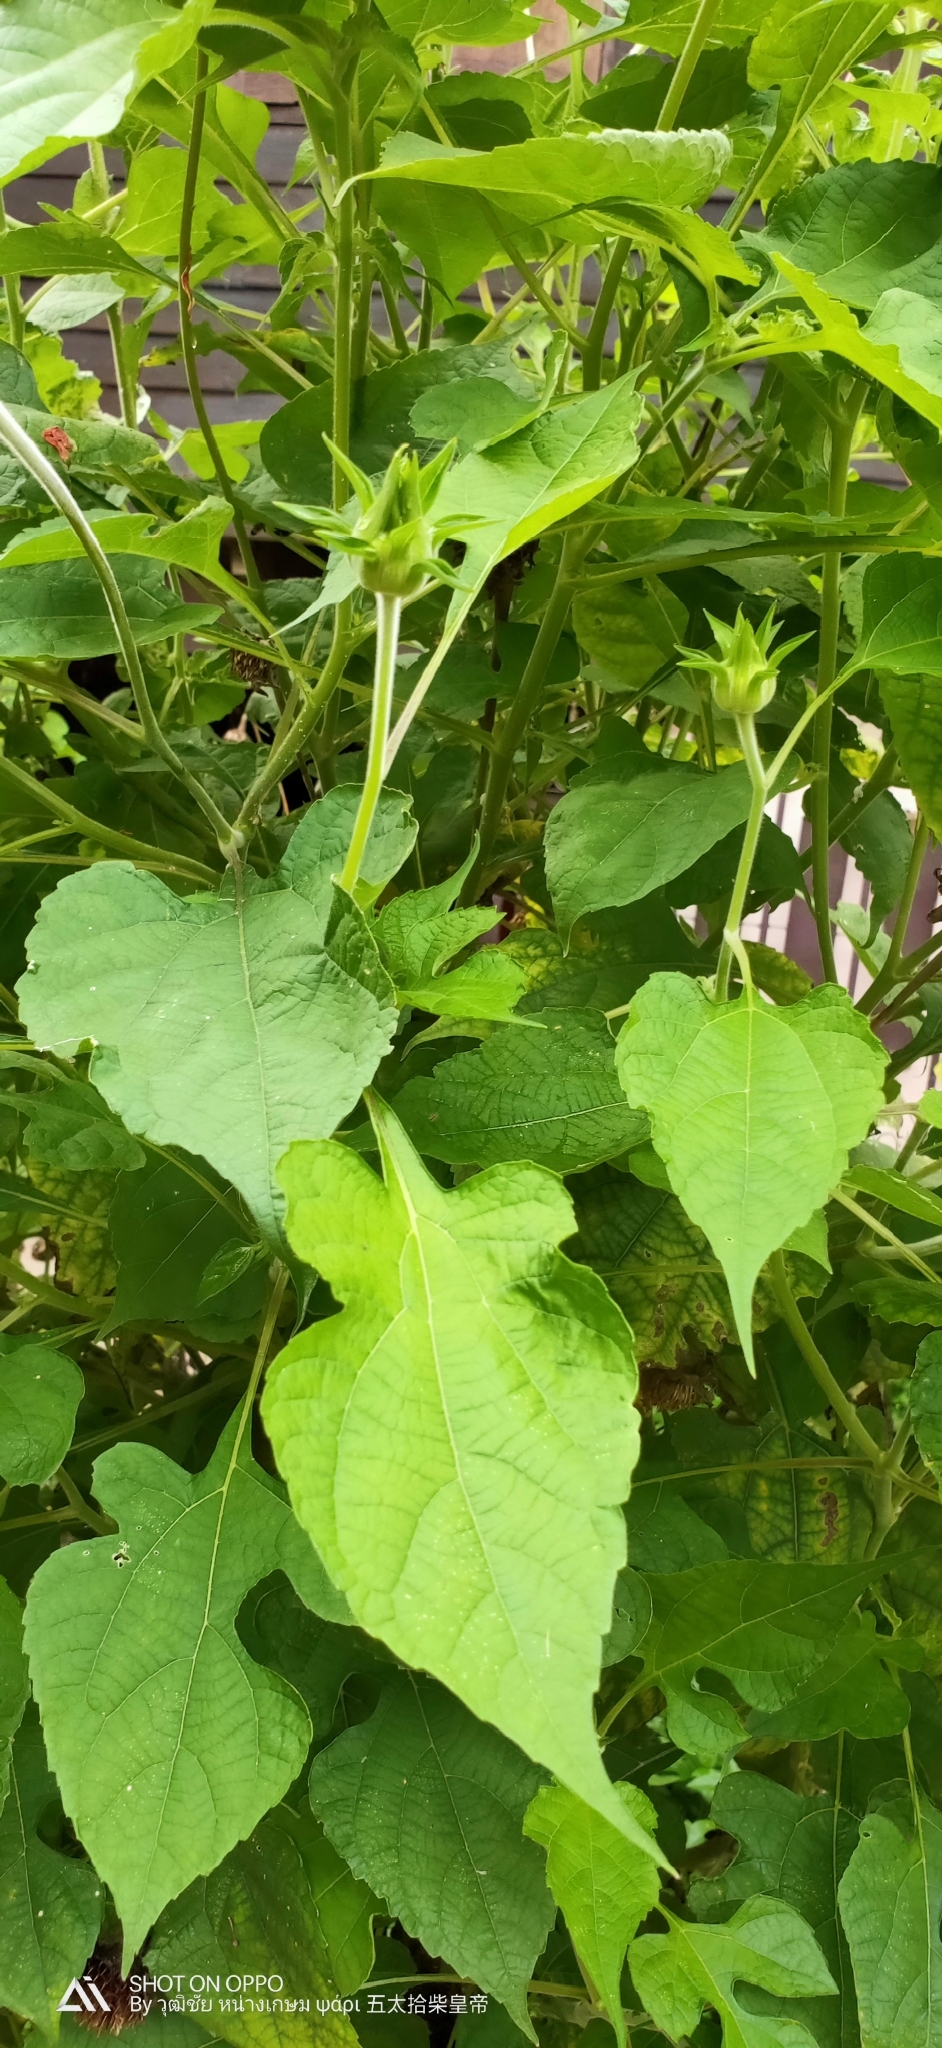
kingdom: Plantae
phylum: Tracheophyta
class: Magnoliopsida
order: Asterales
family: Asteraceae
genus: Tithonia
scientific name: Tithonia rotundifolia
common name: Sunflower
